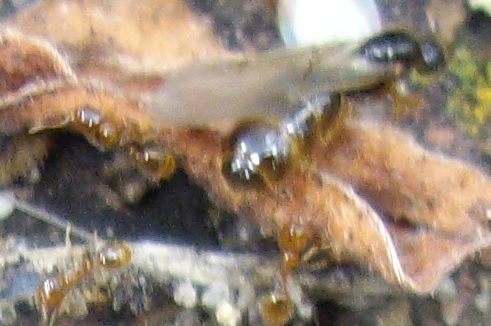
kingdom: Animalia
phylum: Arthropoda
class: Insecta
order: Hymenoptera
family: Formicidae
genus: Solenopsis
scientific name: Solenopsis fugax
